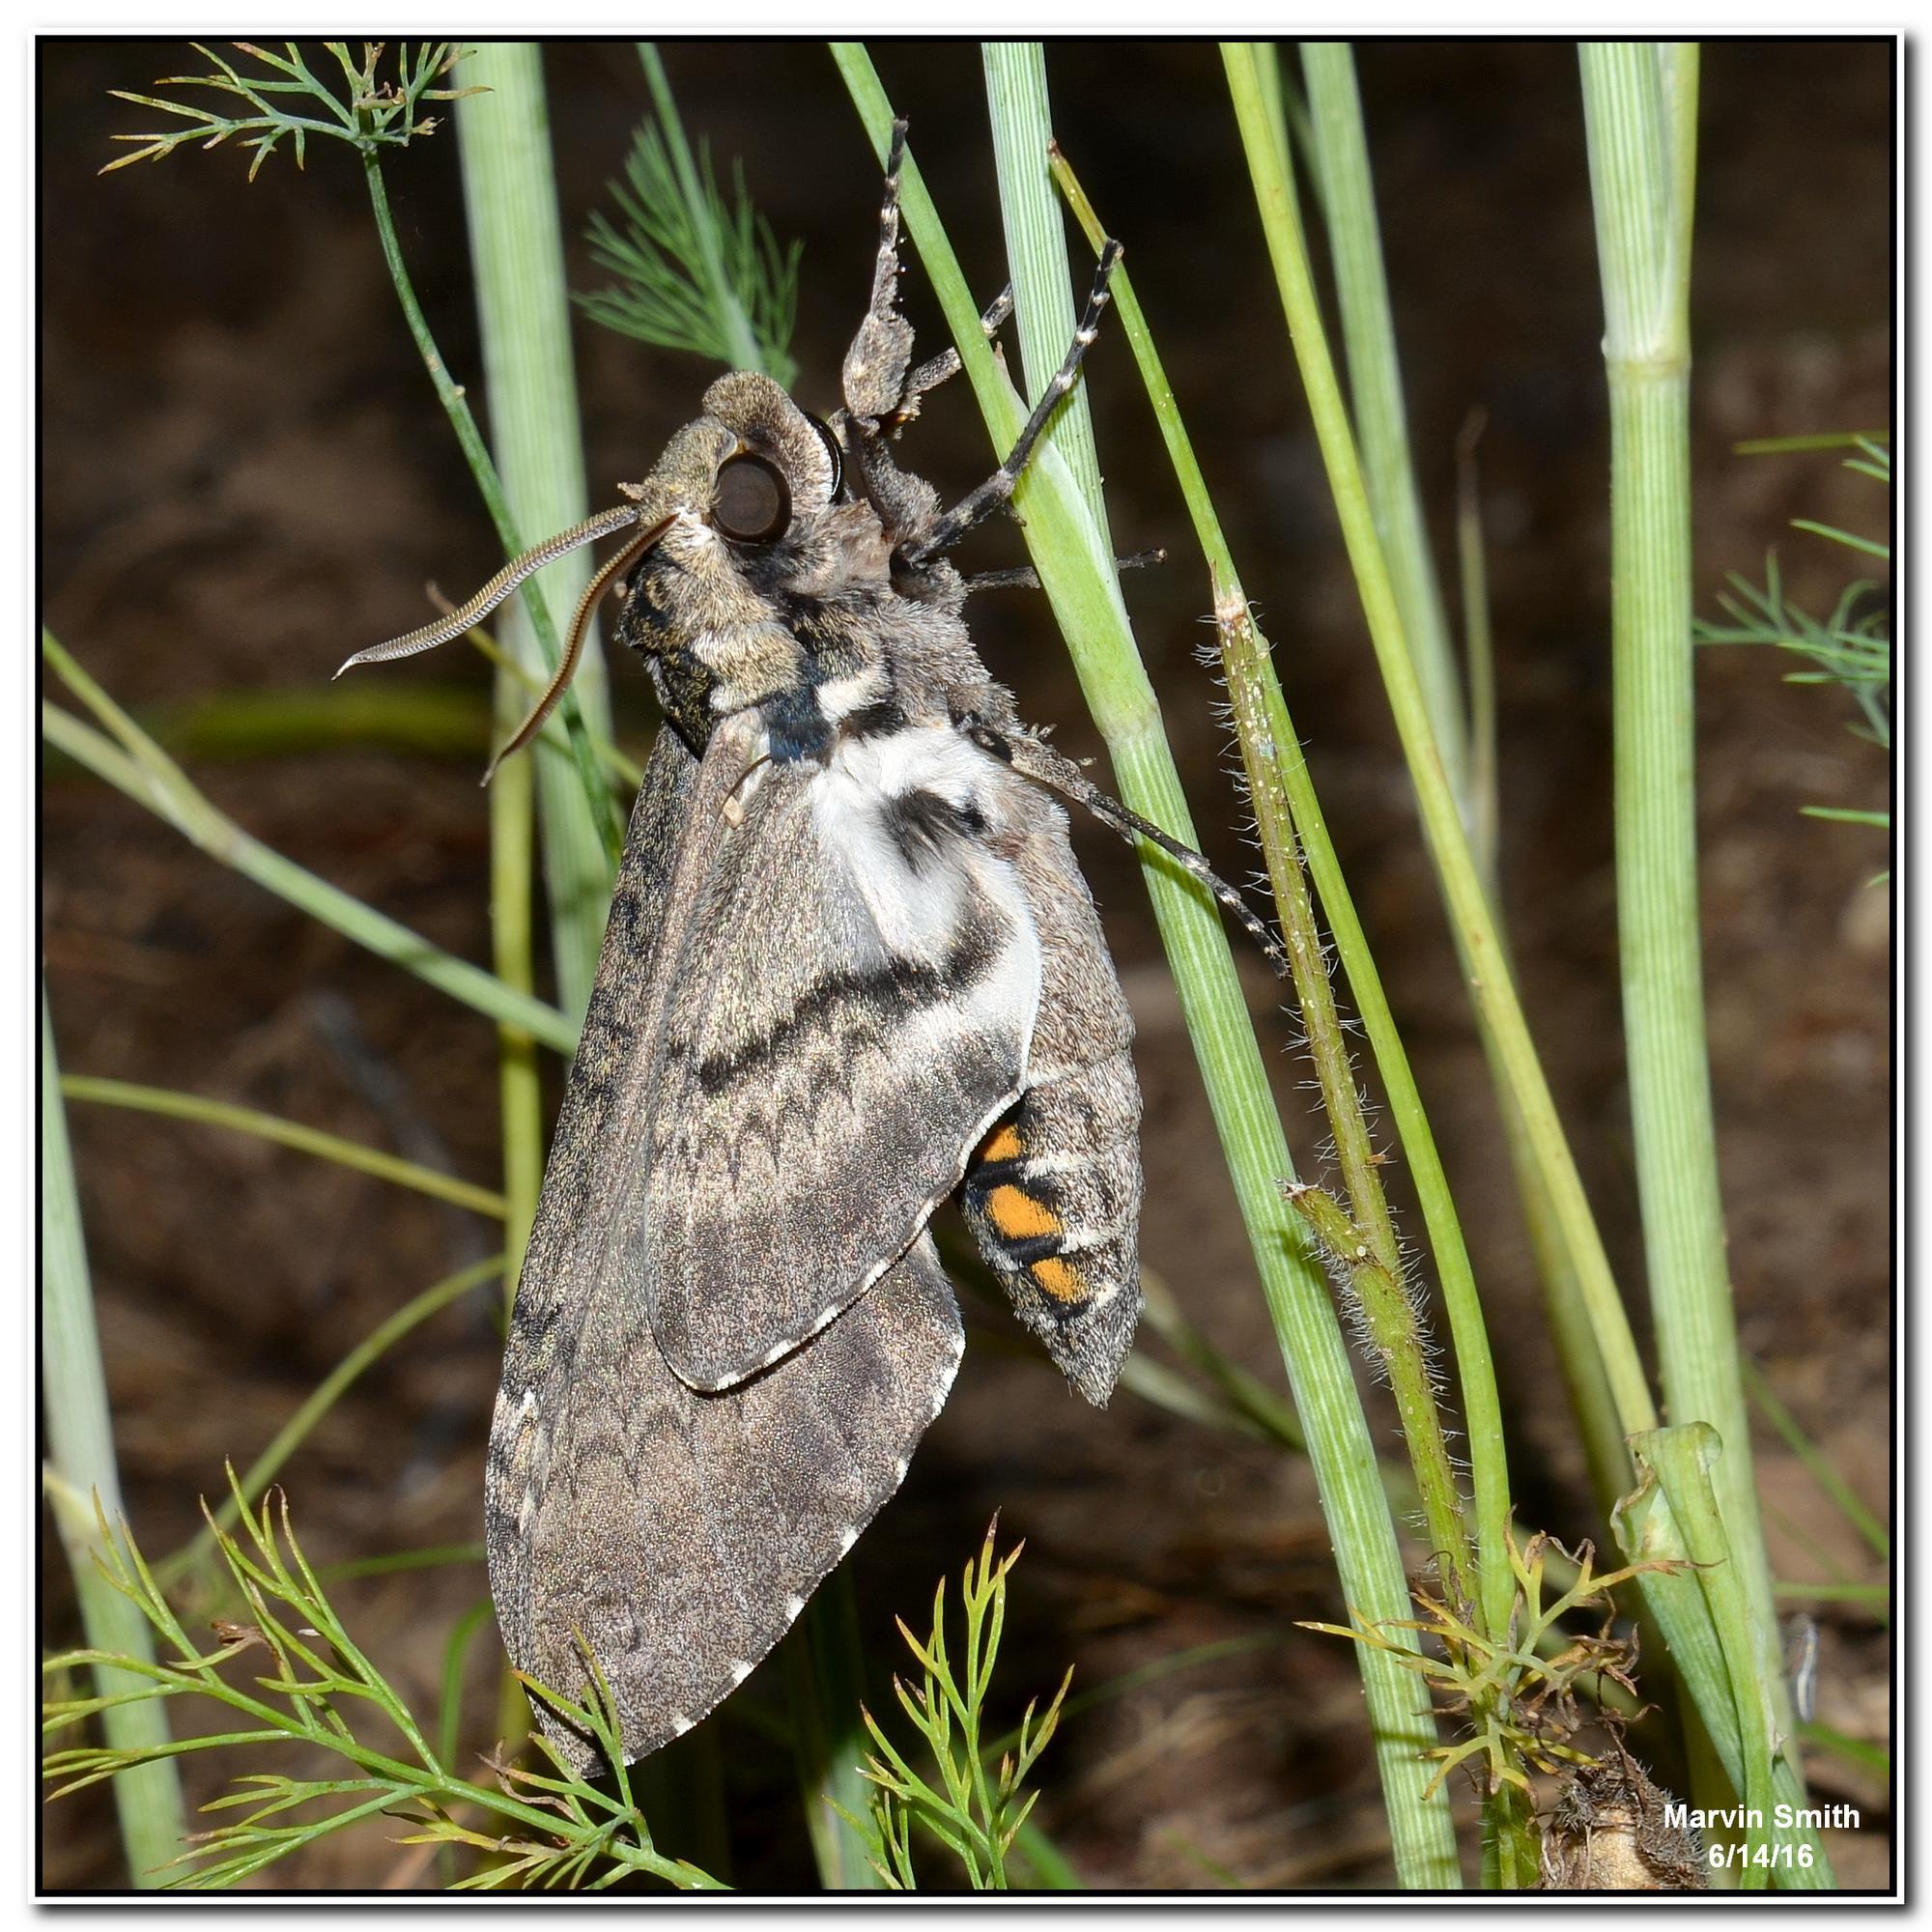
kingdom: Animalia
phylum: Arthropoda
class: Insecta
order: Lepidoptera
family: Sphingidae
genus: Manduca
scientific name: Manduca sexta
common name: Carolina sphinx
